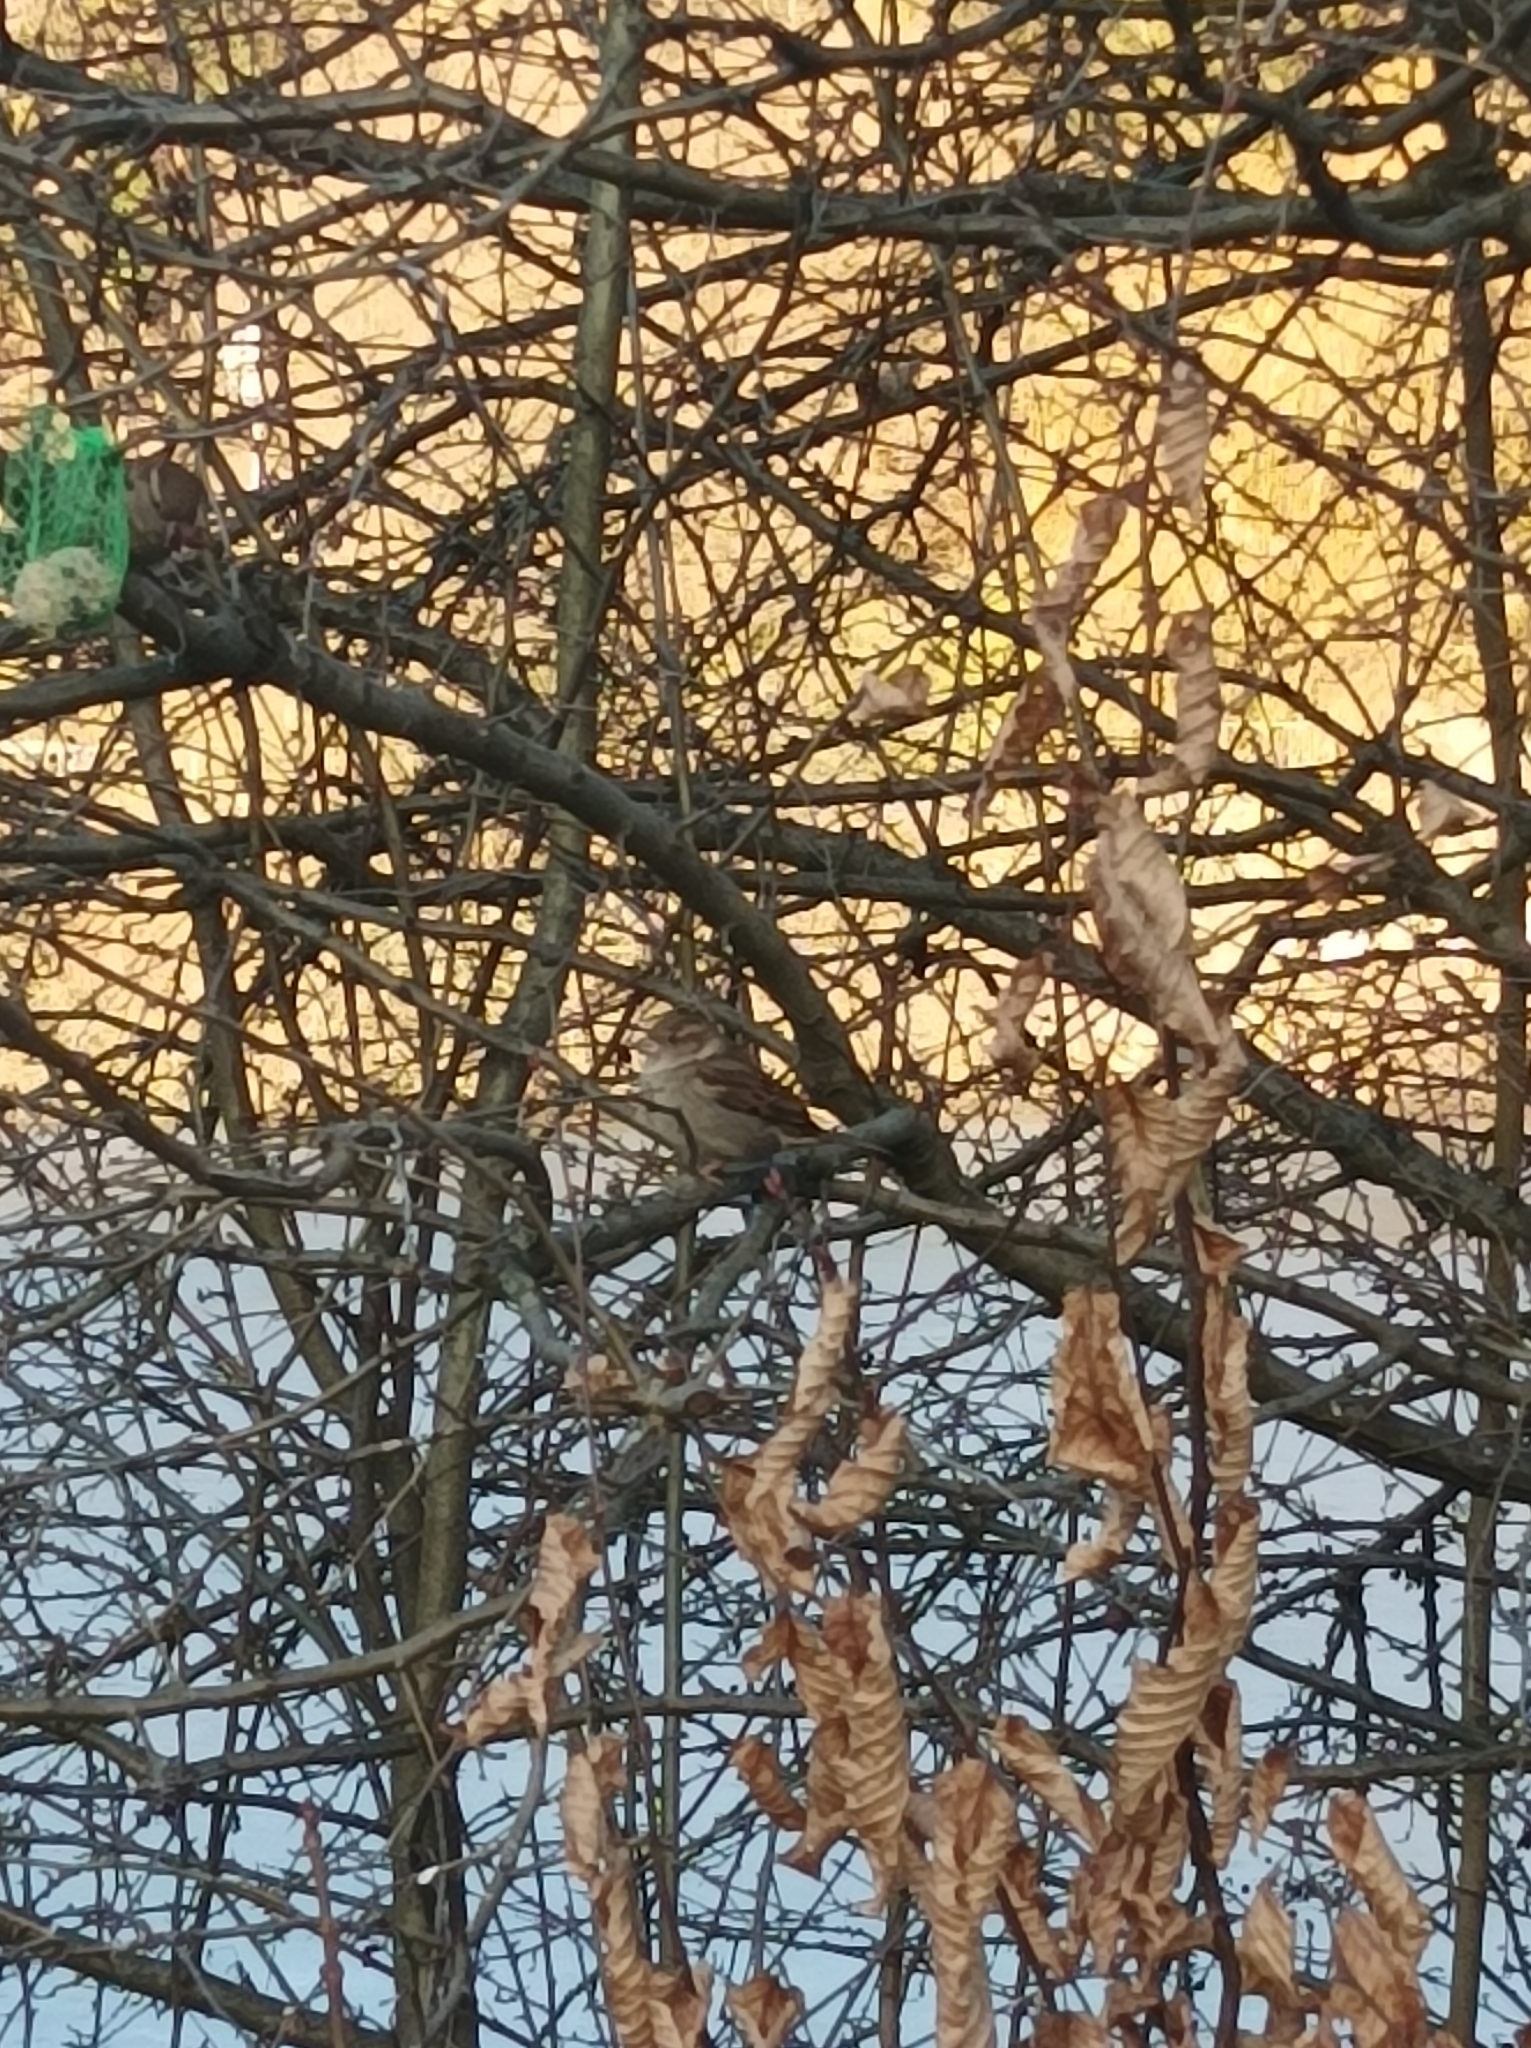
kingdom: Animalia
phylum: Chordata
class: Aves
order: Passeriformes
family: Passeridae
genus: Passer
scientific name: Passer domesticus
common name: House sparrow
